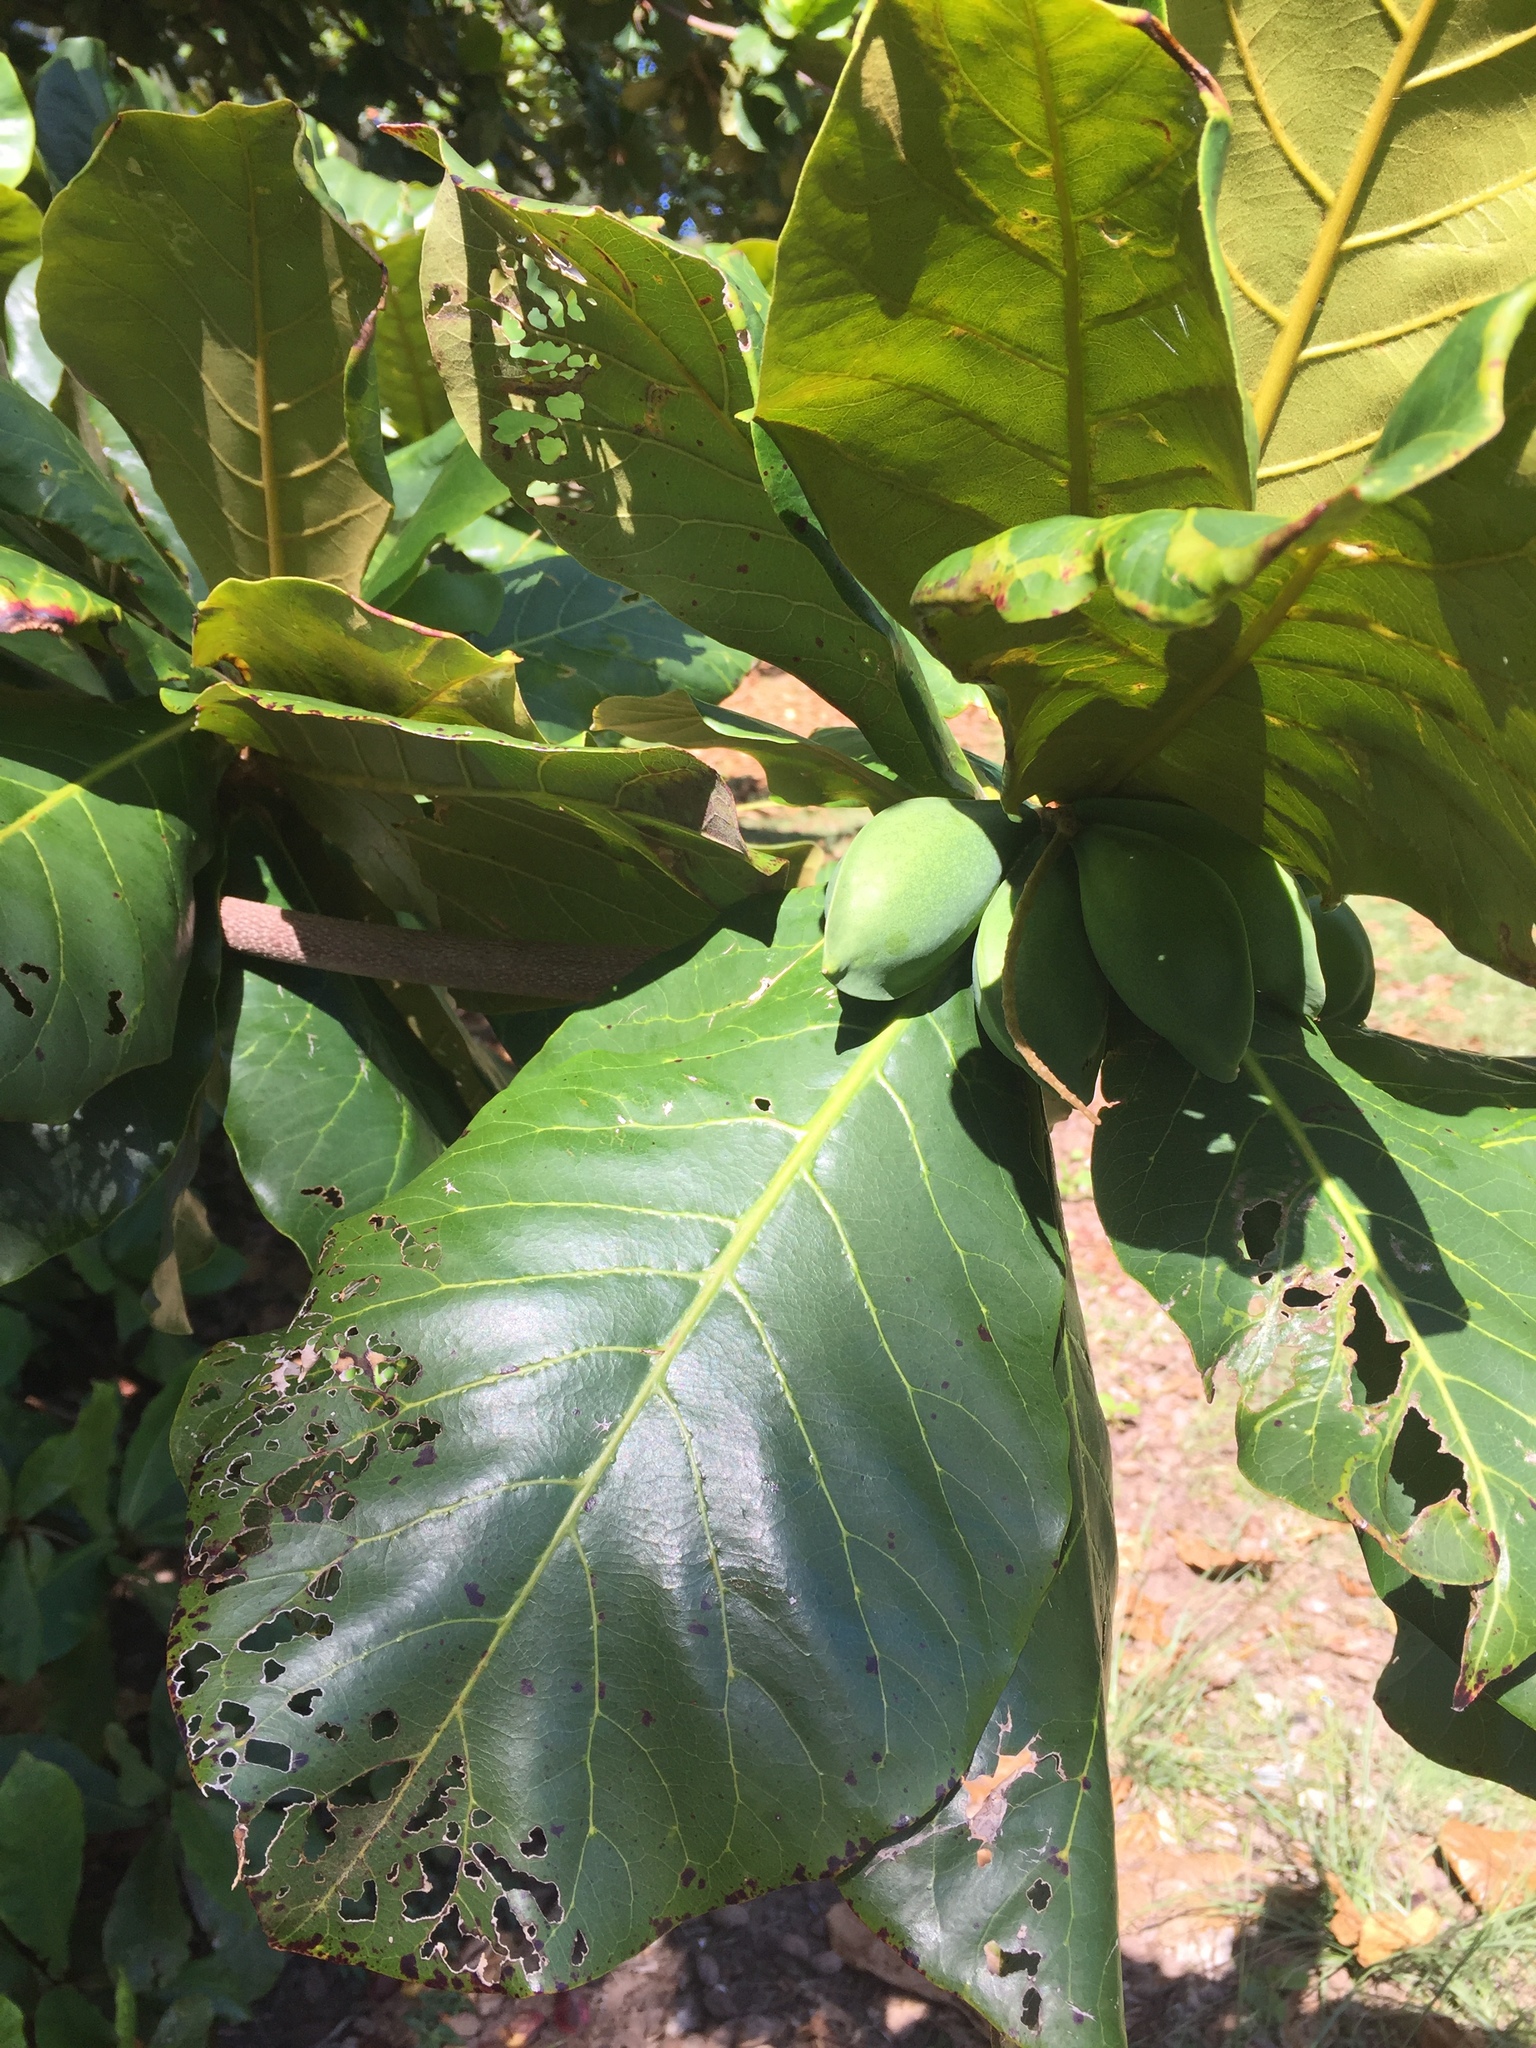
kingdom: Plantae
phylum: Tracheophyta
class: Magnoliopsida
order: Myrtales
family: Combretaceae
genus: Terminalia
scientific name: Terminalia catappa
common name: Tropical almond
